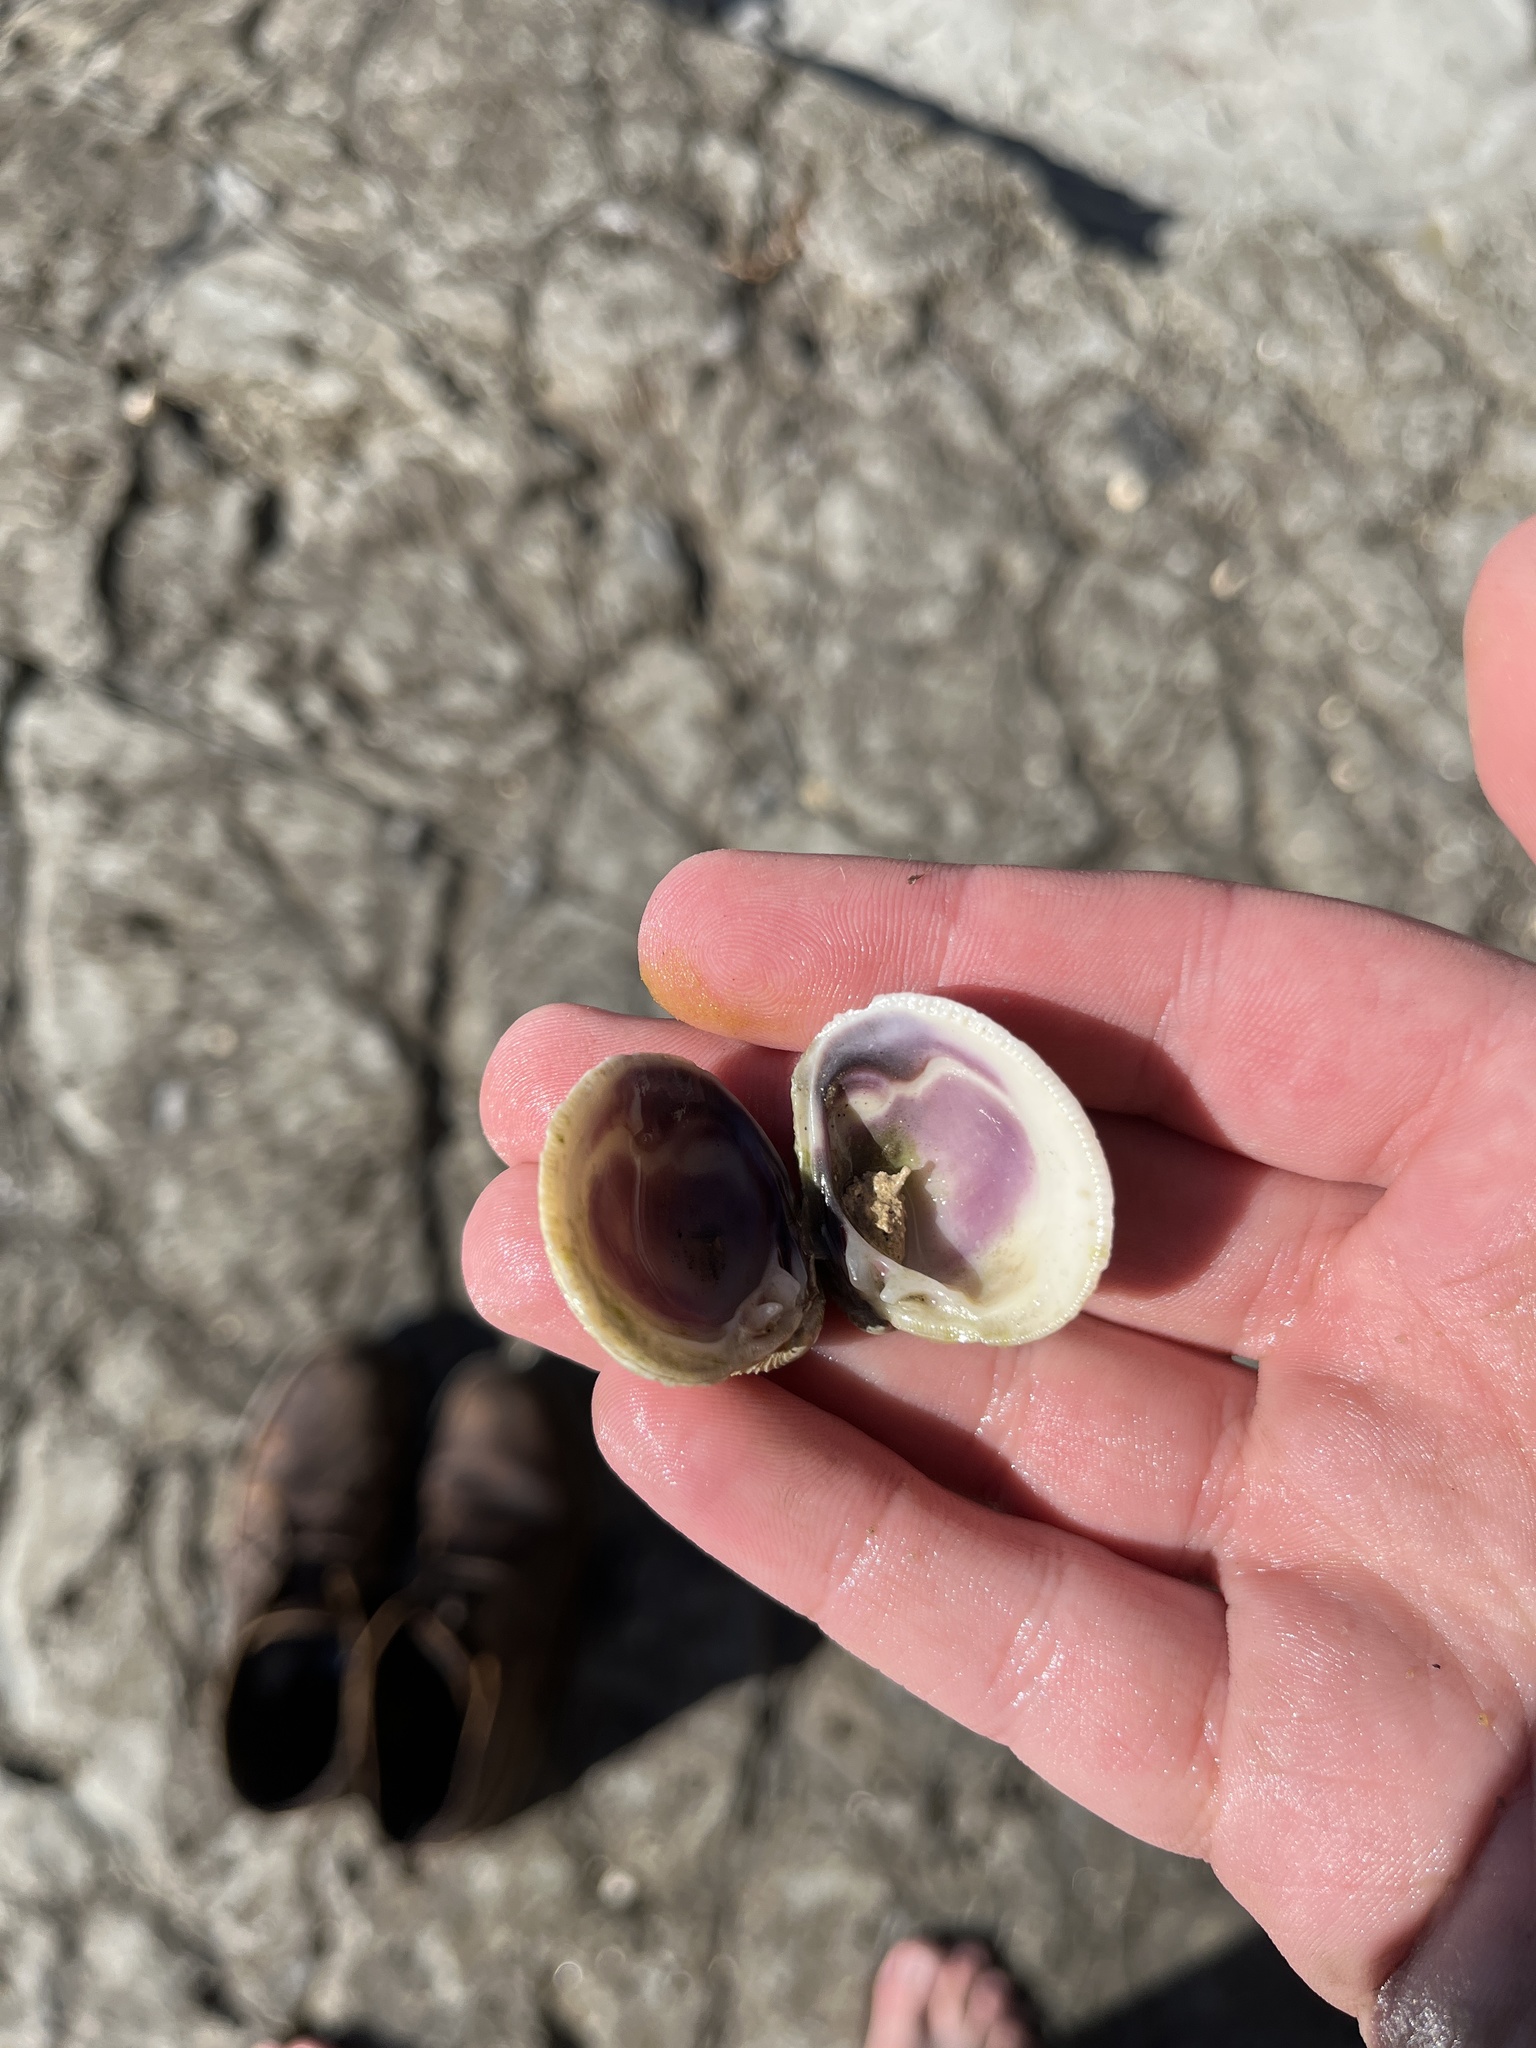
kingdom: Animalia
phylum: Mollusca
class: Bivalvia
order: Venerida
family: Veneridae
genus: Chione
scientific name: Chione undatella
